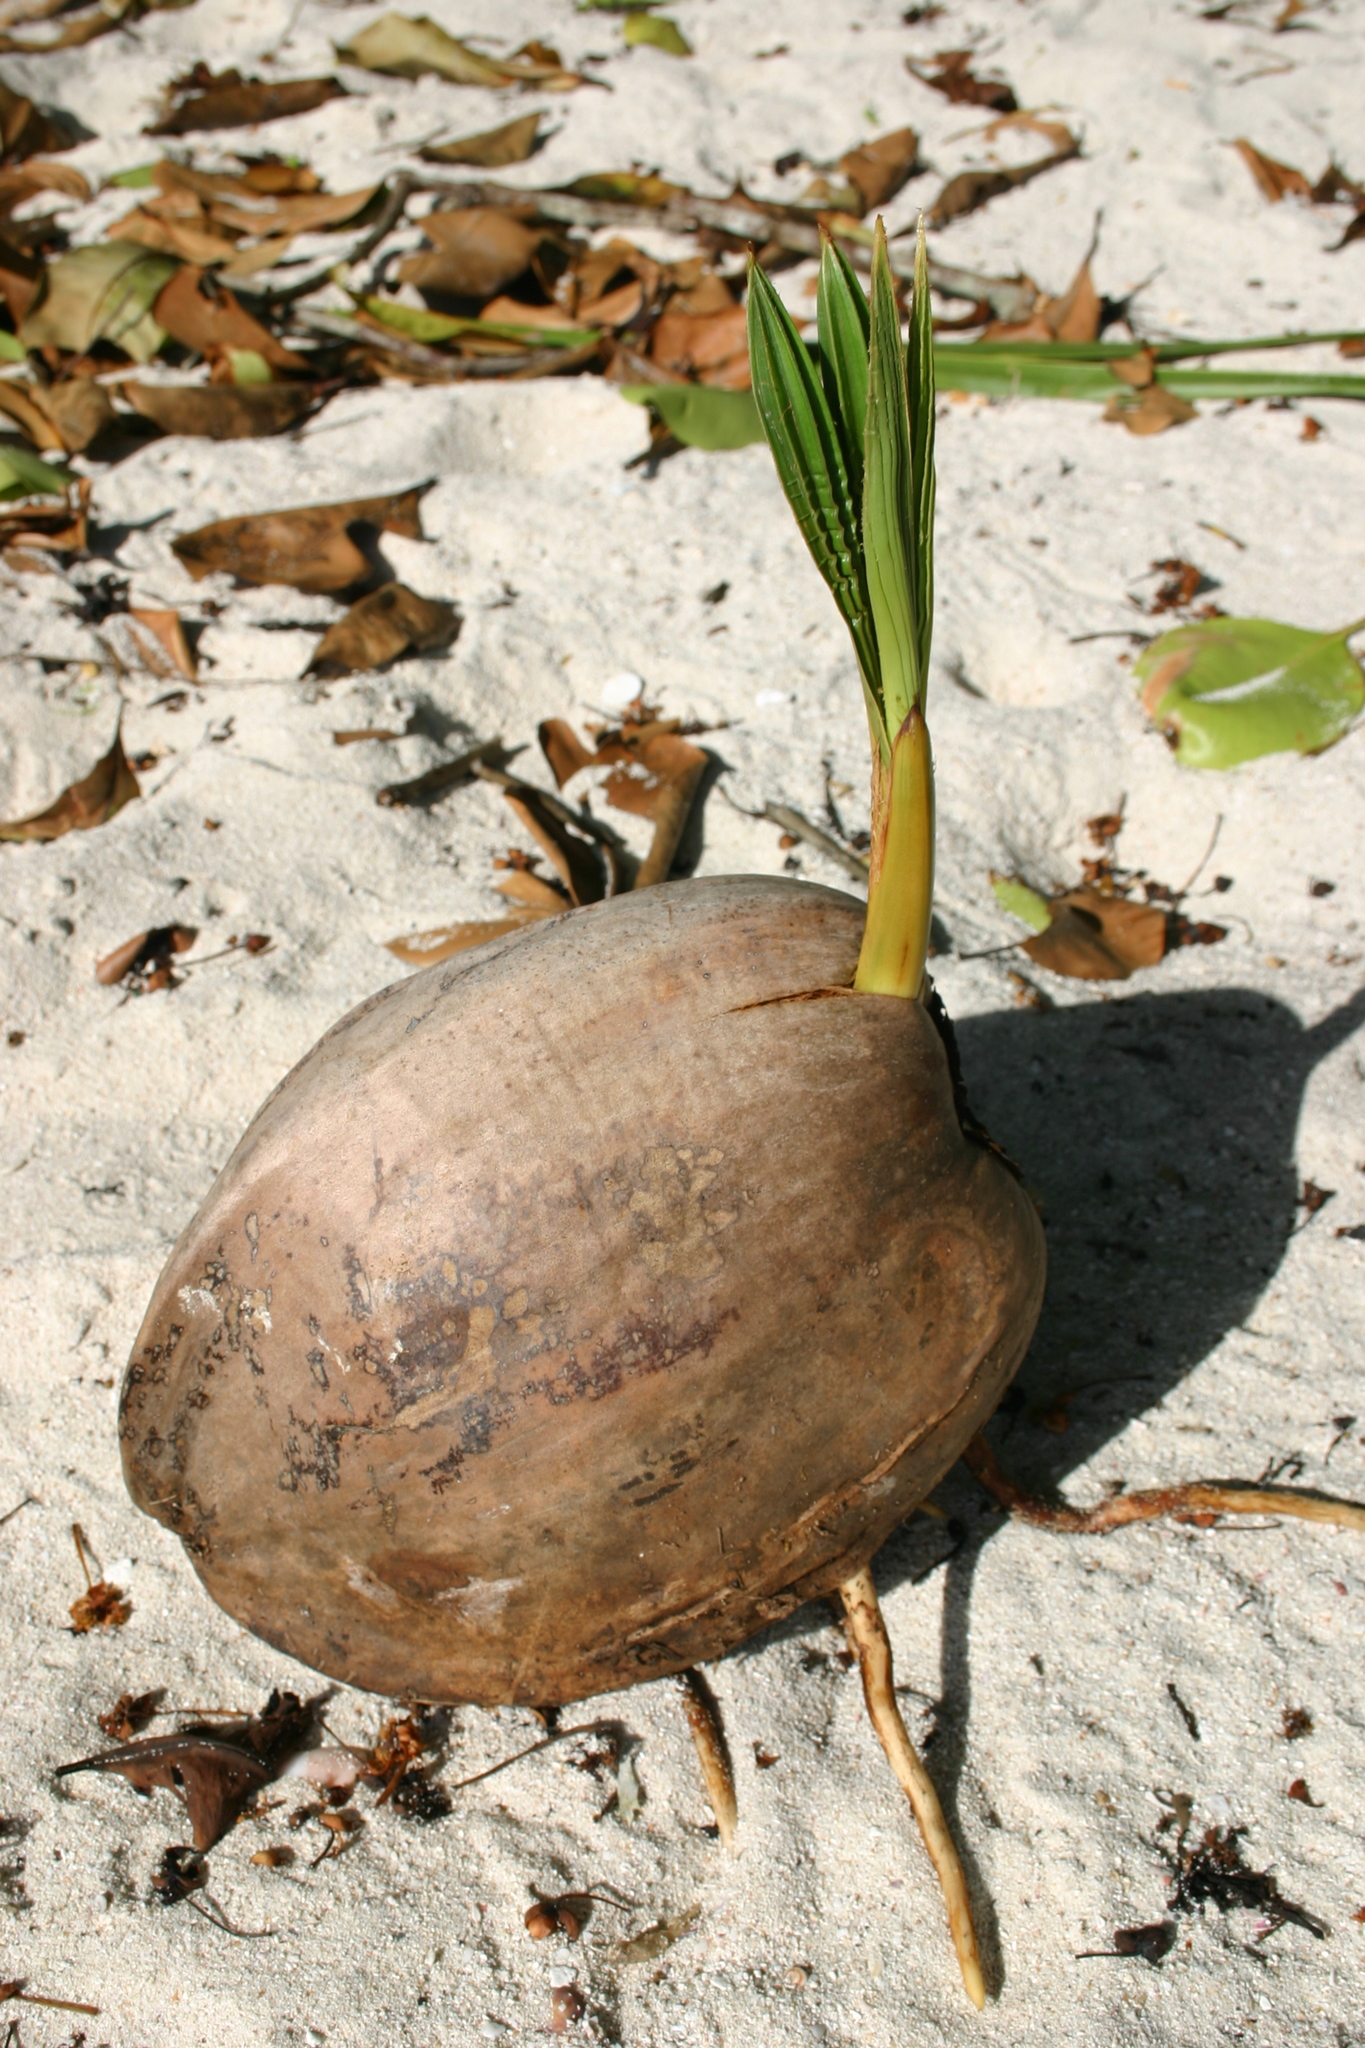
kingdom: Plantae
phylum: Tracheophyta
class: Liliopsida
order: Arecales
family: Arecaceae
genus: Cocos
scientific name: Cocos nucifera
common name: Coconut palm
